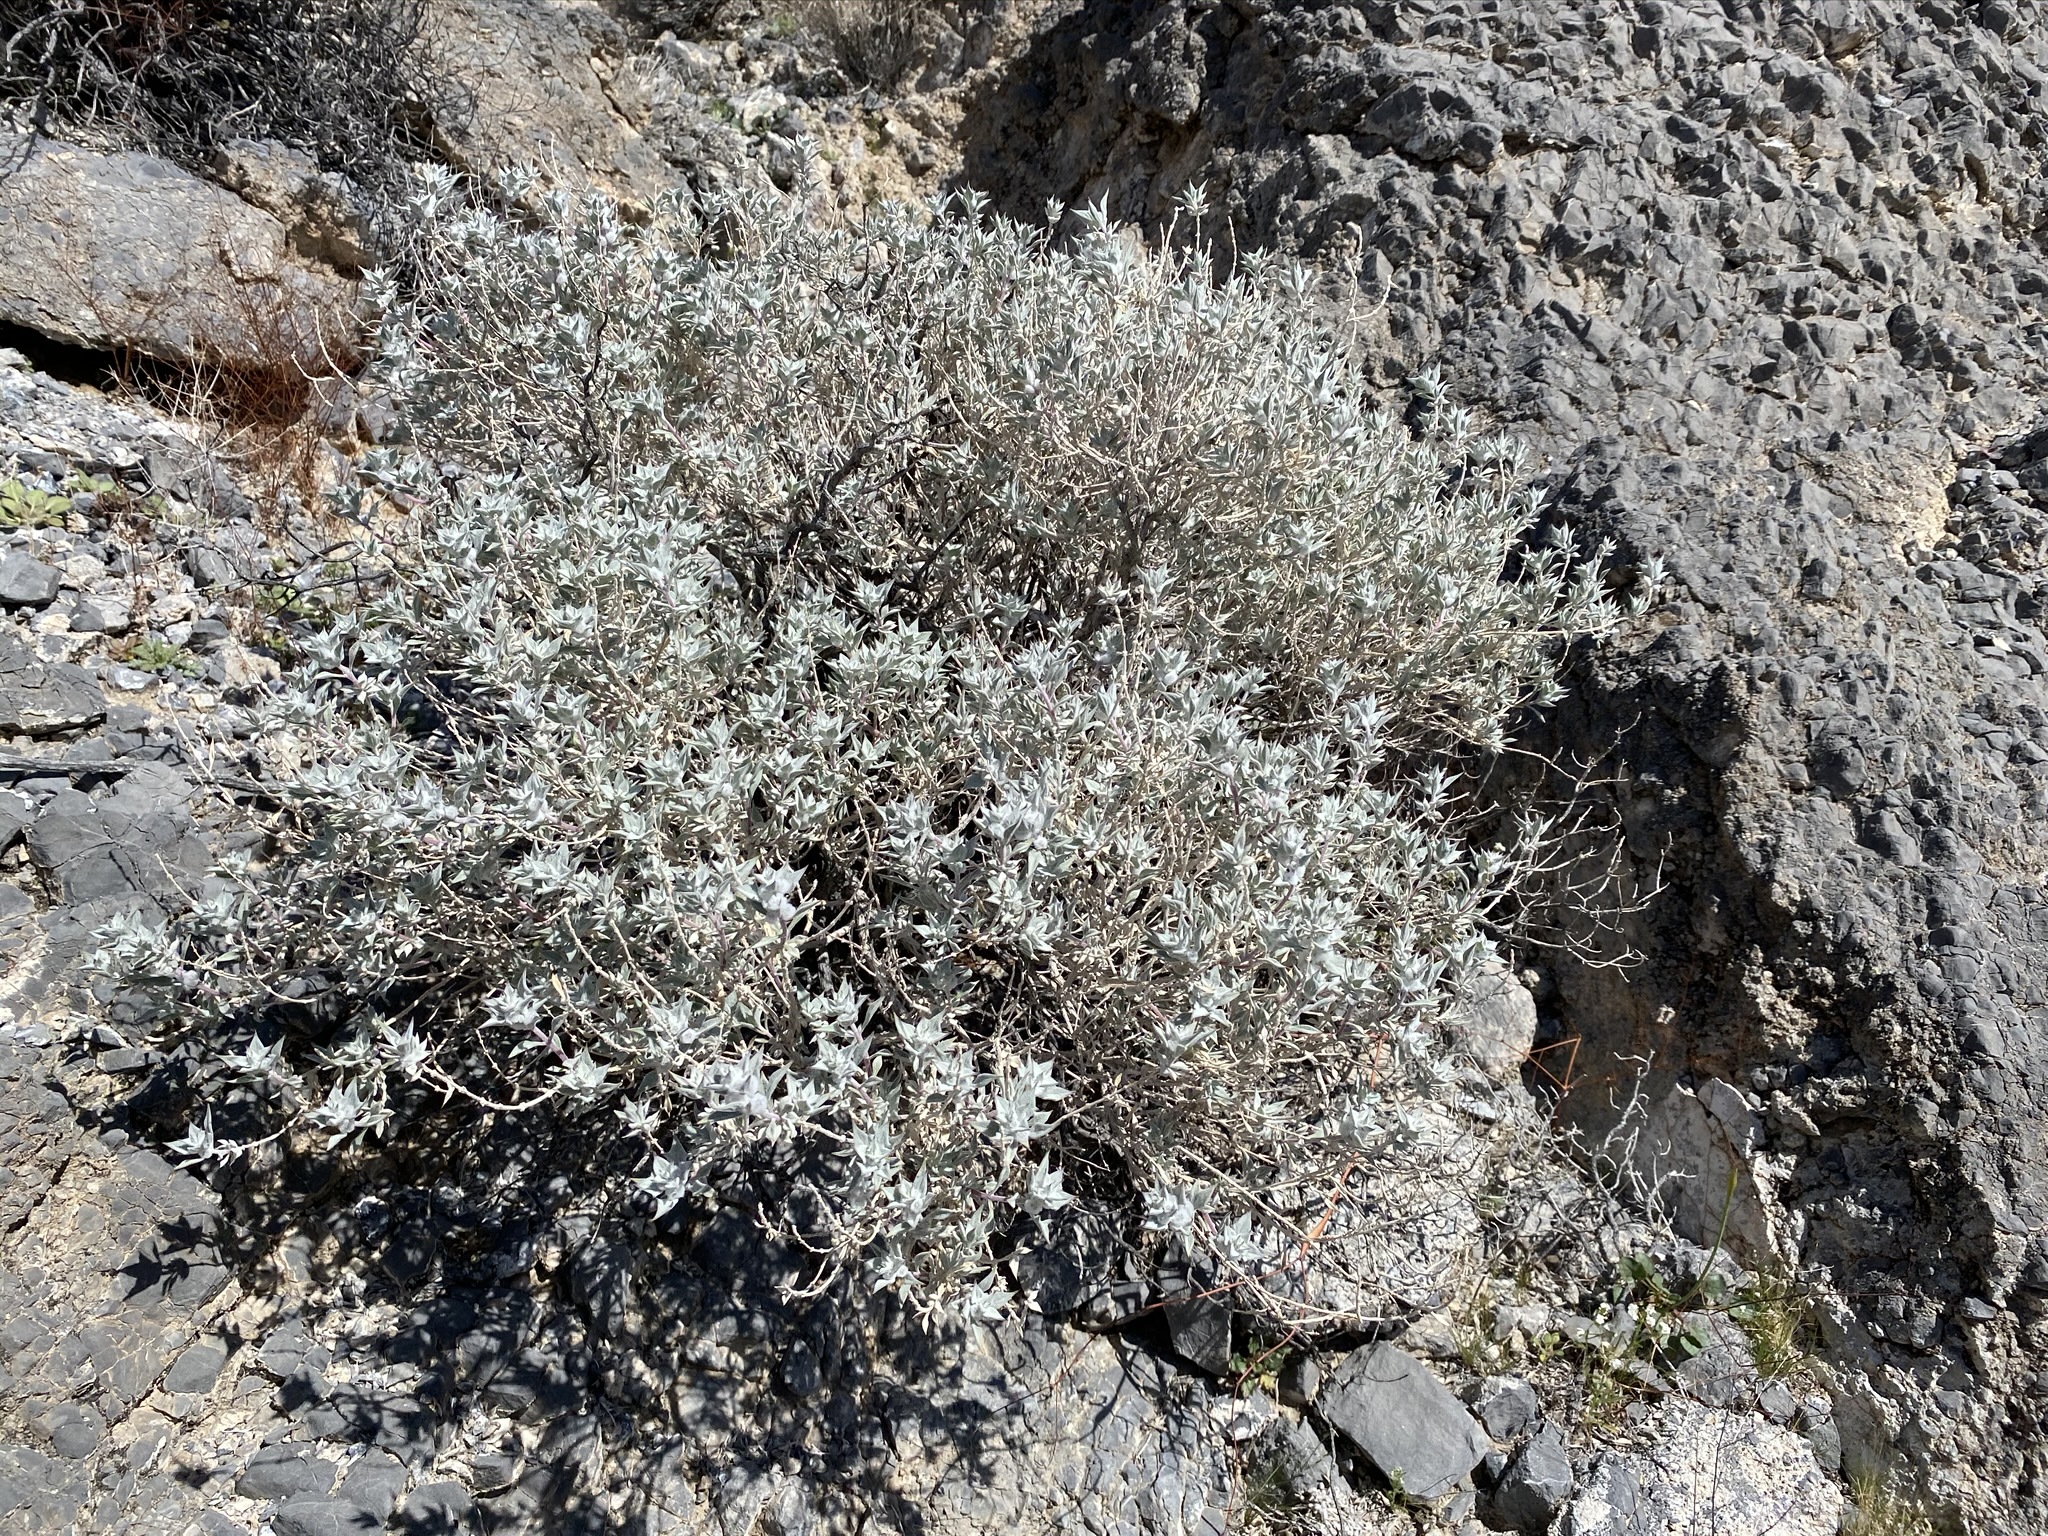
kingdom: Plantae
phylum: Tracheophyta
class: Magnoliopsida
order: Lamiales
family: Lamiaceae
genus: Salvia
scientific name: Salvia funerea
